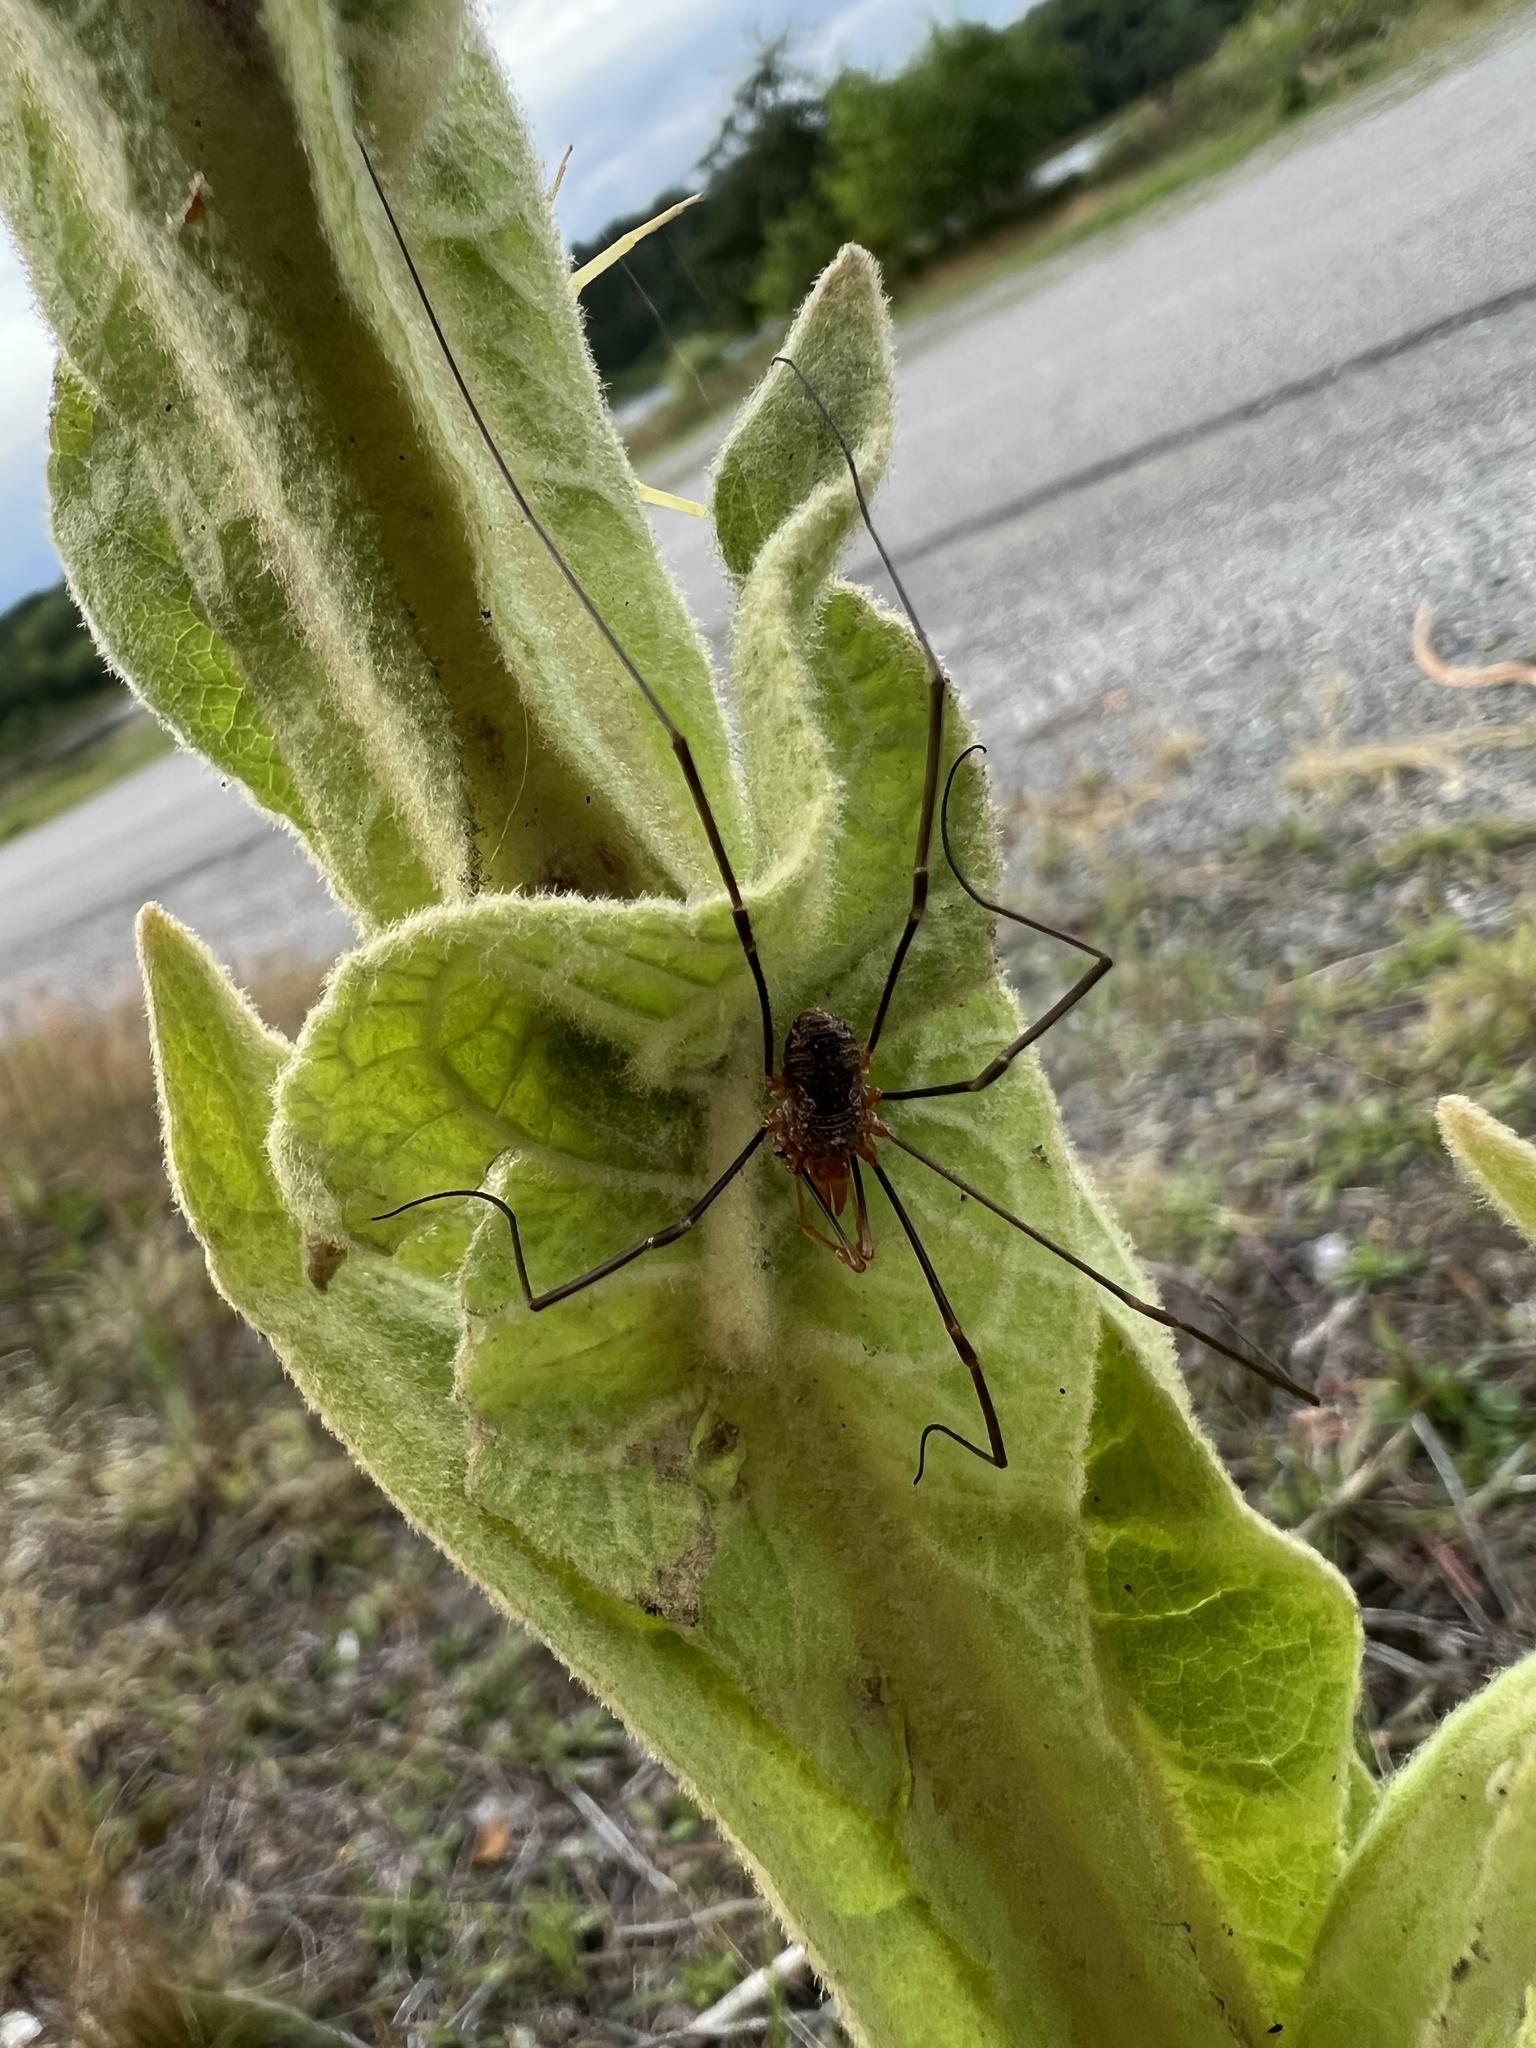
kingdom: Animalia
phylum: Arthropoda
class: Arachnida
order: Opiliones
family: Phalangiidae
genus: Phalangium
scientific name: Phalangium opilio
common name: Daddy longleg
